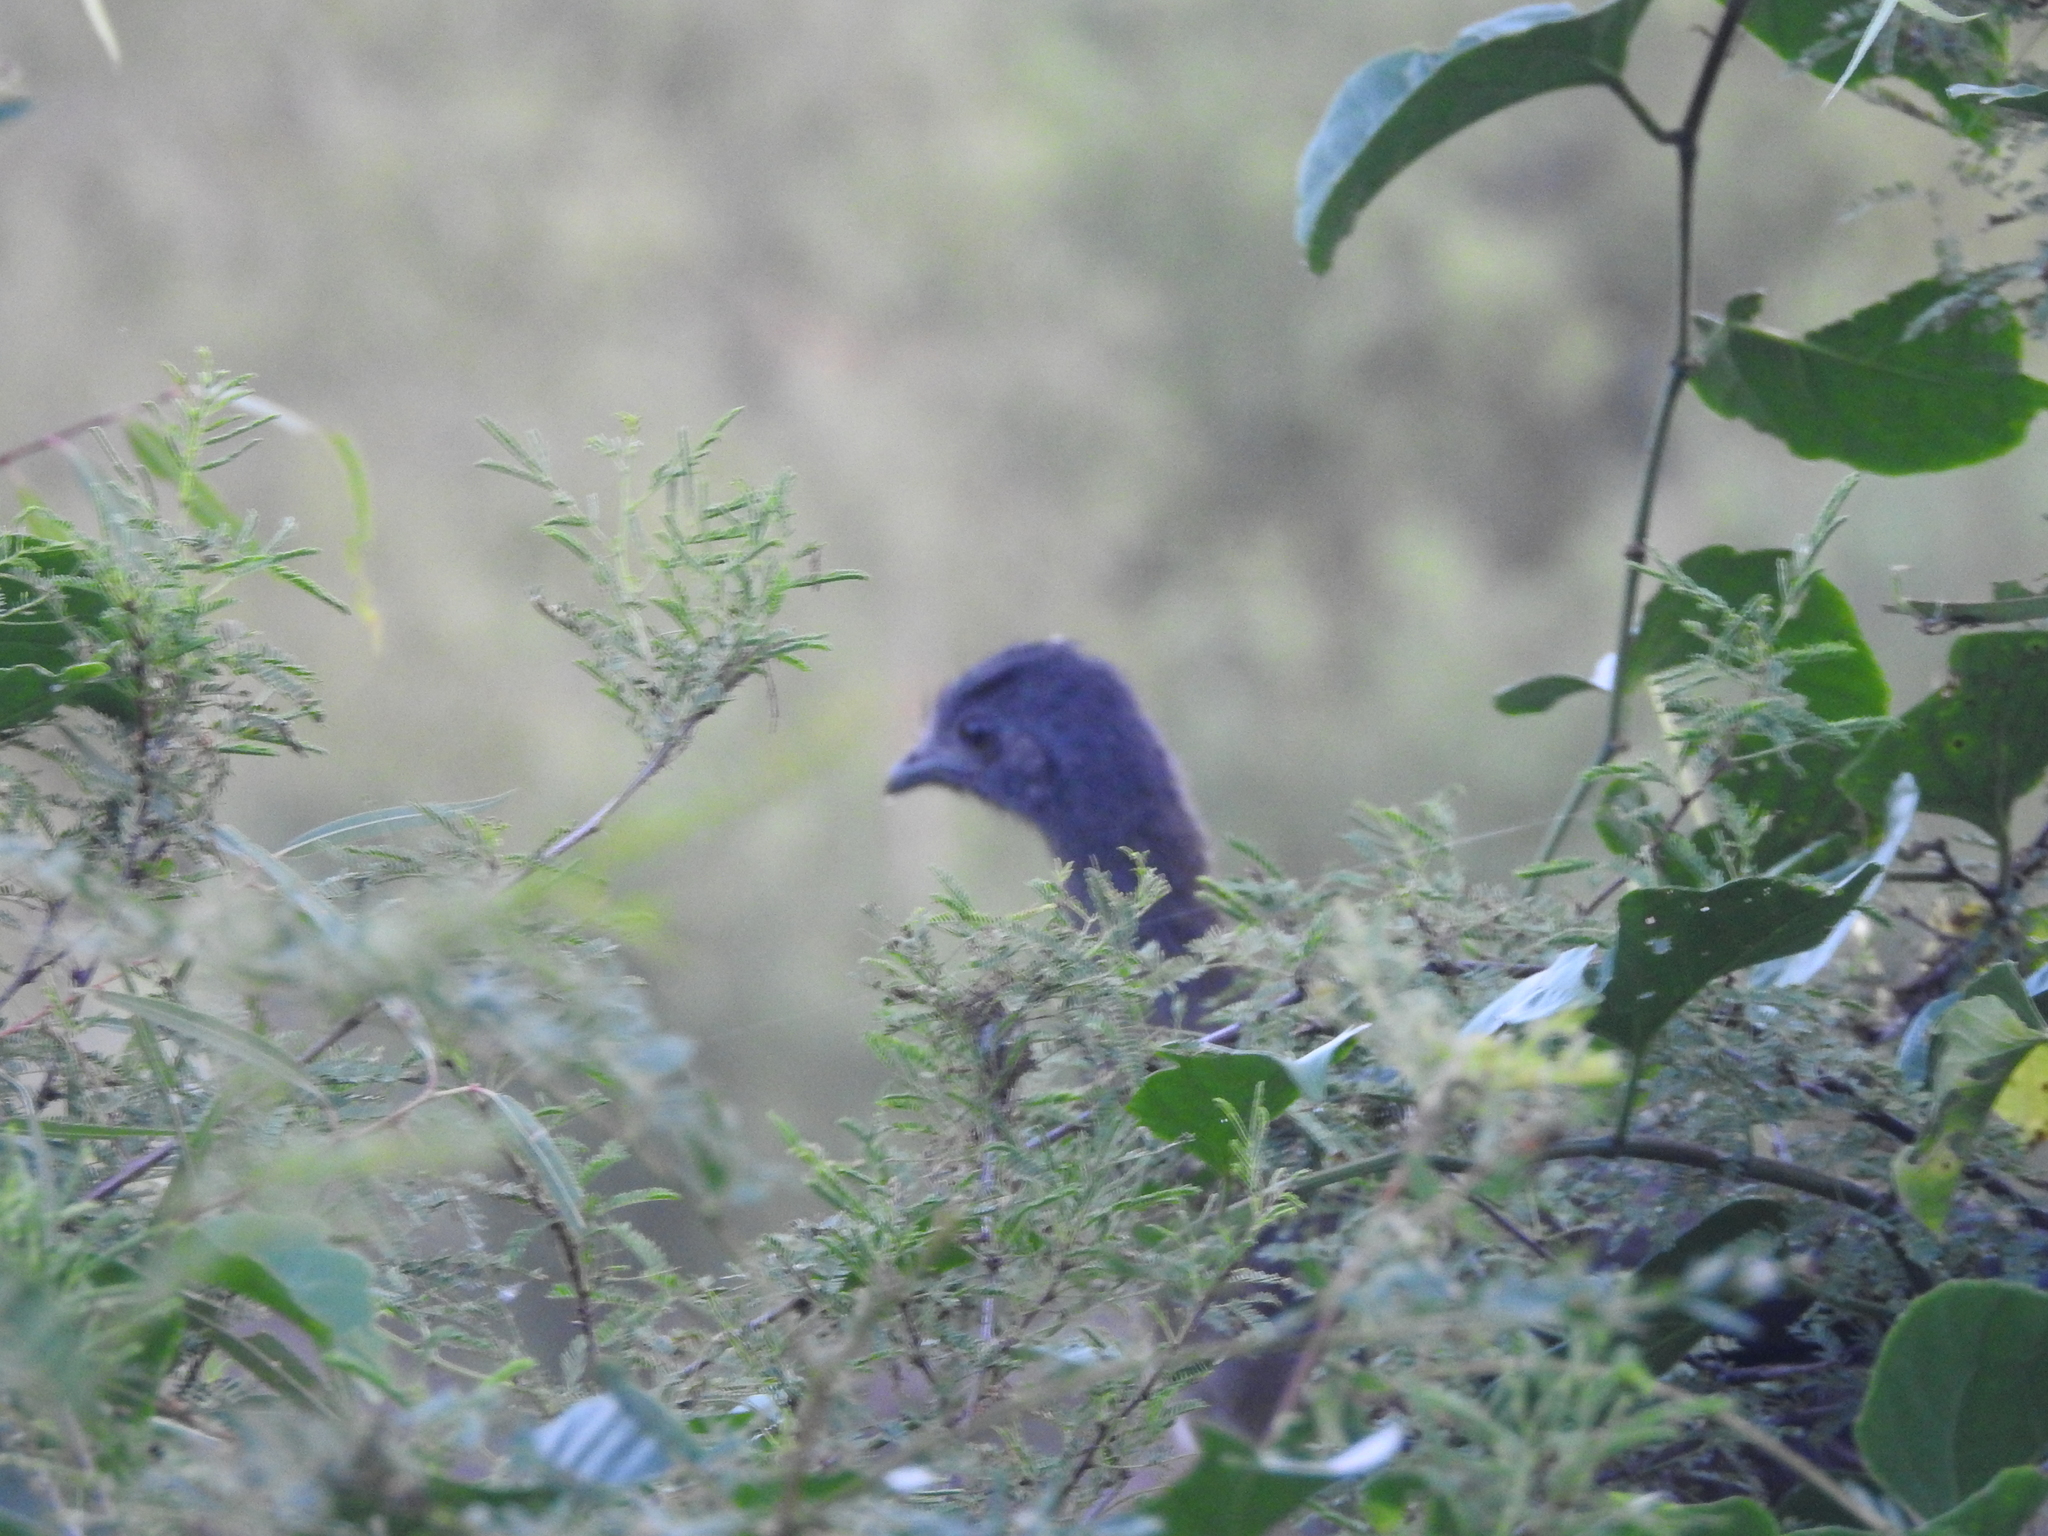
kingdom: Animalia
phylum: Chordata
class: Aves
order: Galliformes
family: Cracidae
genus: Ortalis
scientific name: Ortalis vetula
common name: Plain chachalaca
